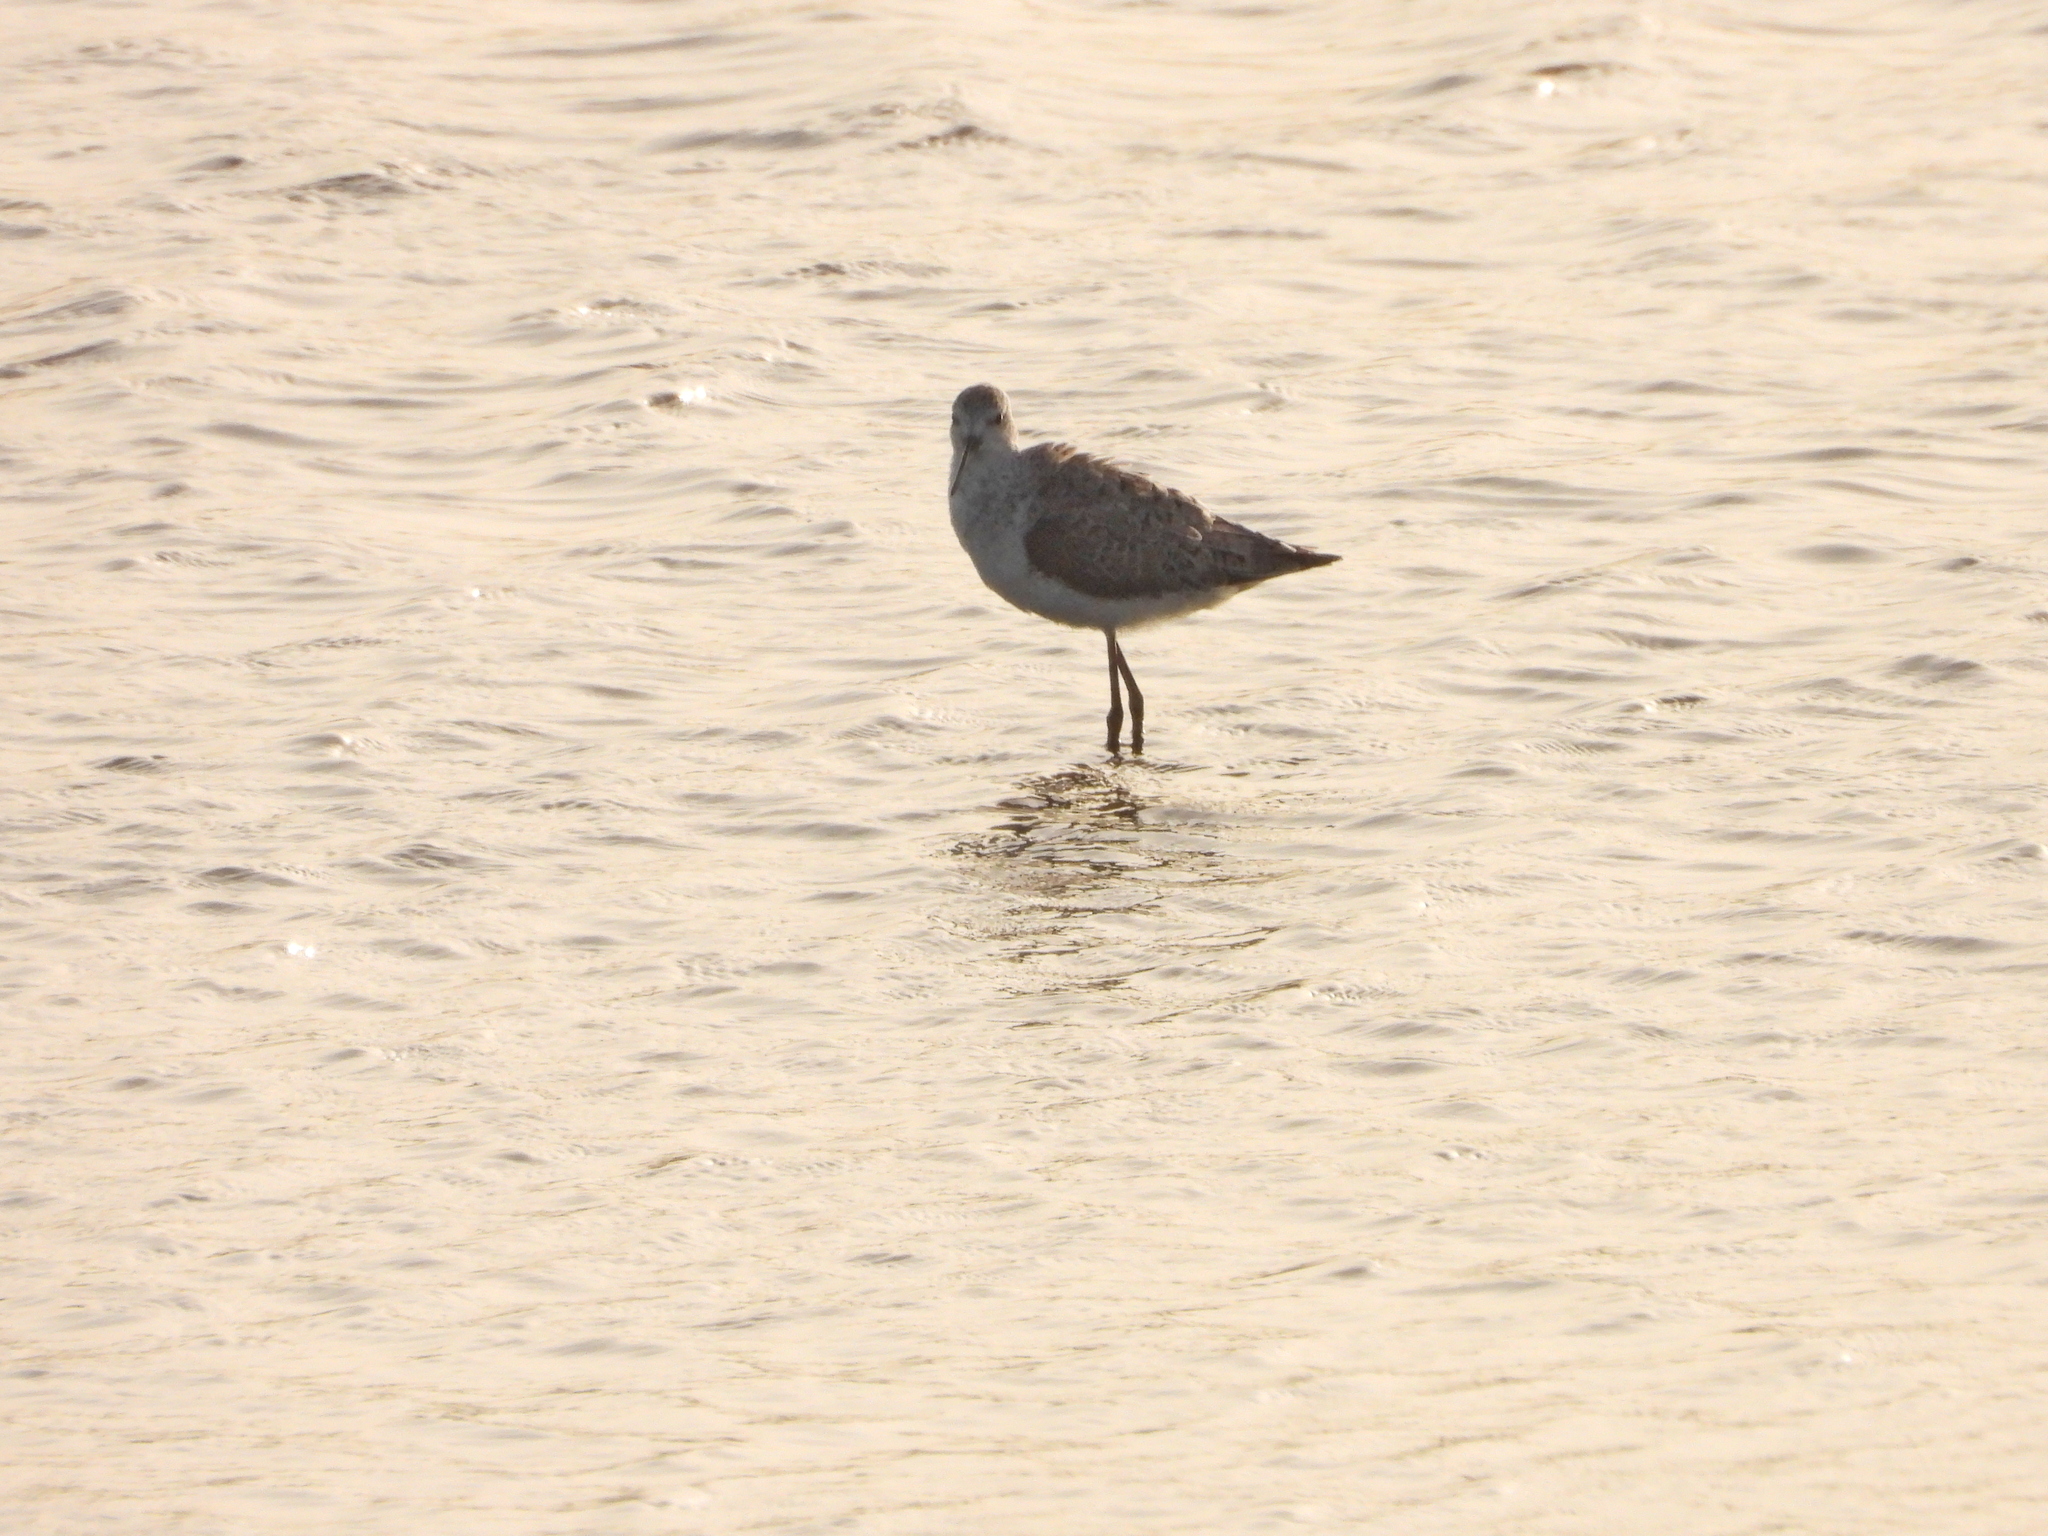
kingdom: Animalia
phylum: Chordata
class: Aves
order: Charadriiformes
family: Scolopacidae
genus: Tringa
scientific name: Tringa stagnatilis
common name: Marsh sandpiper
